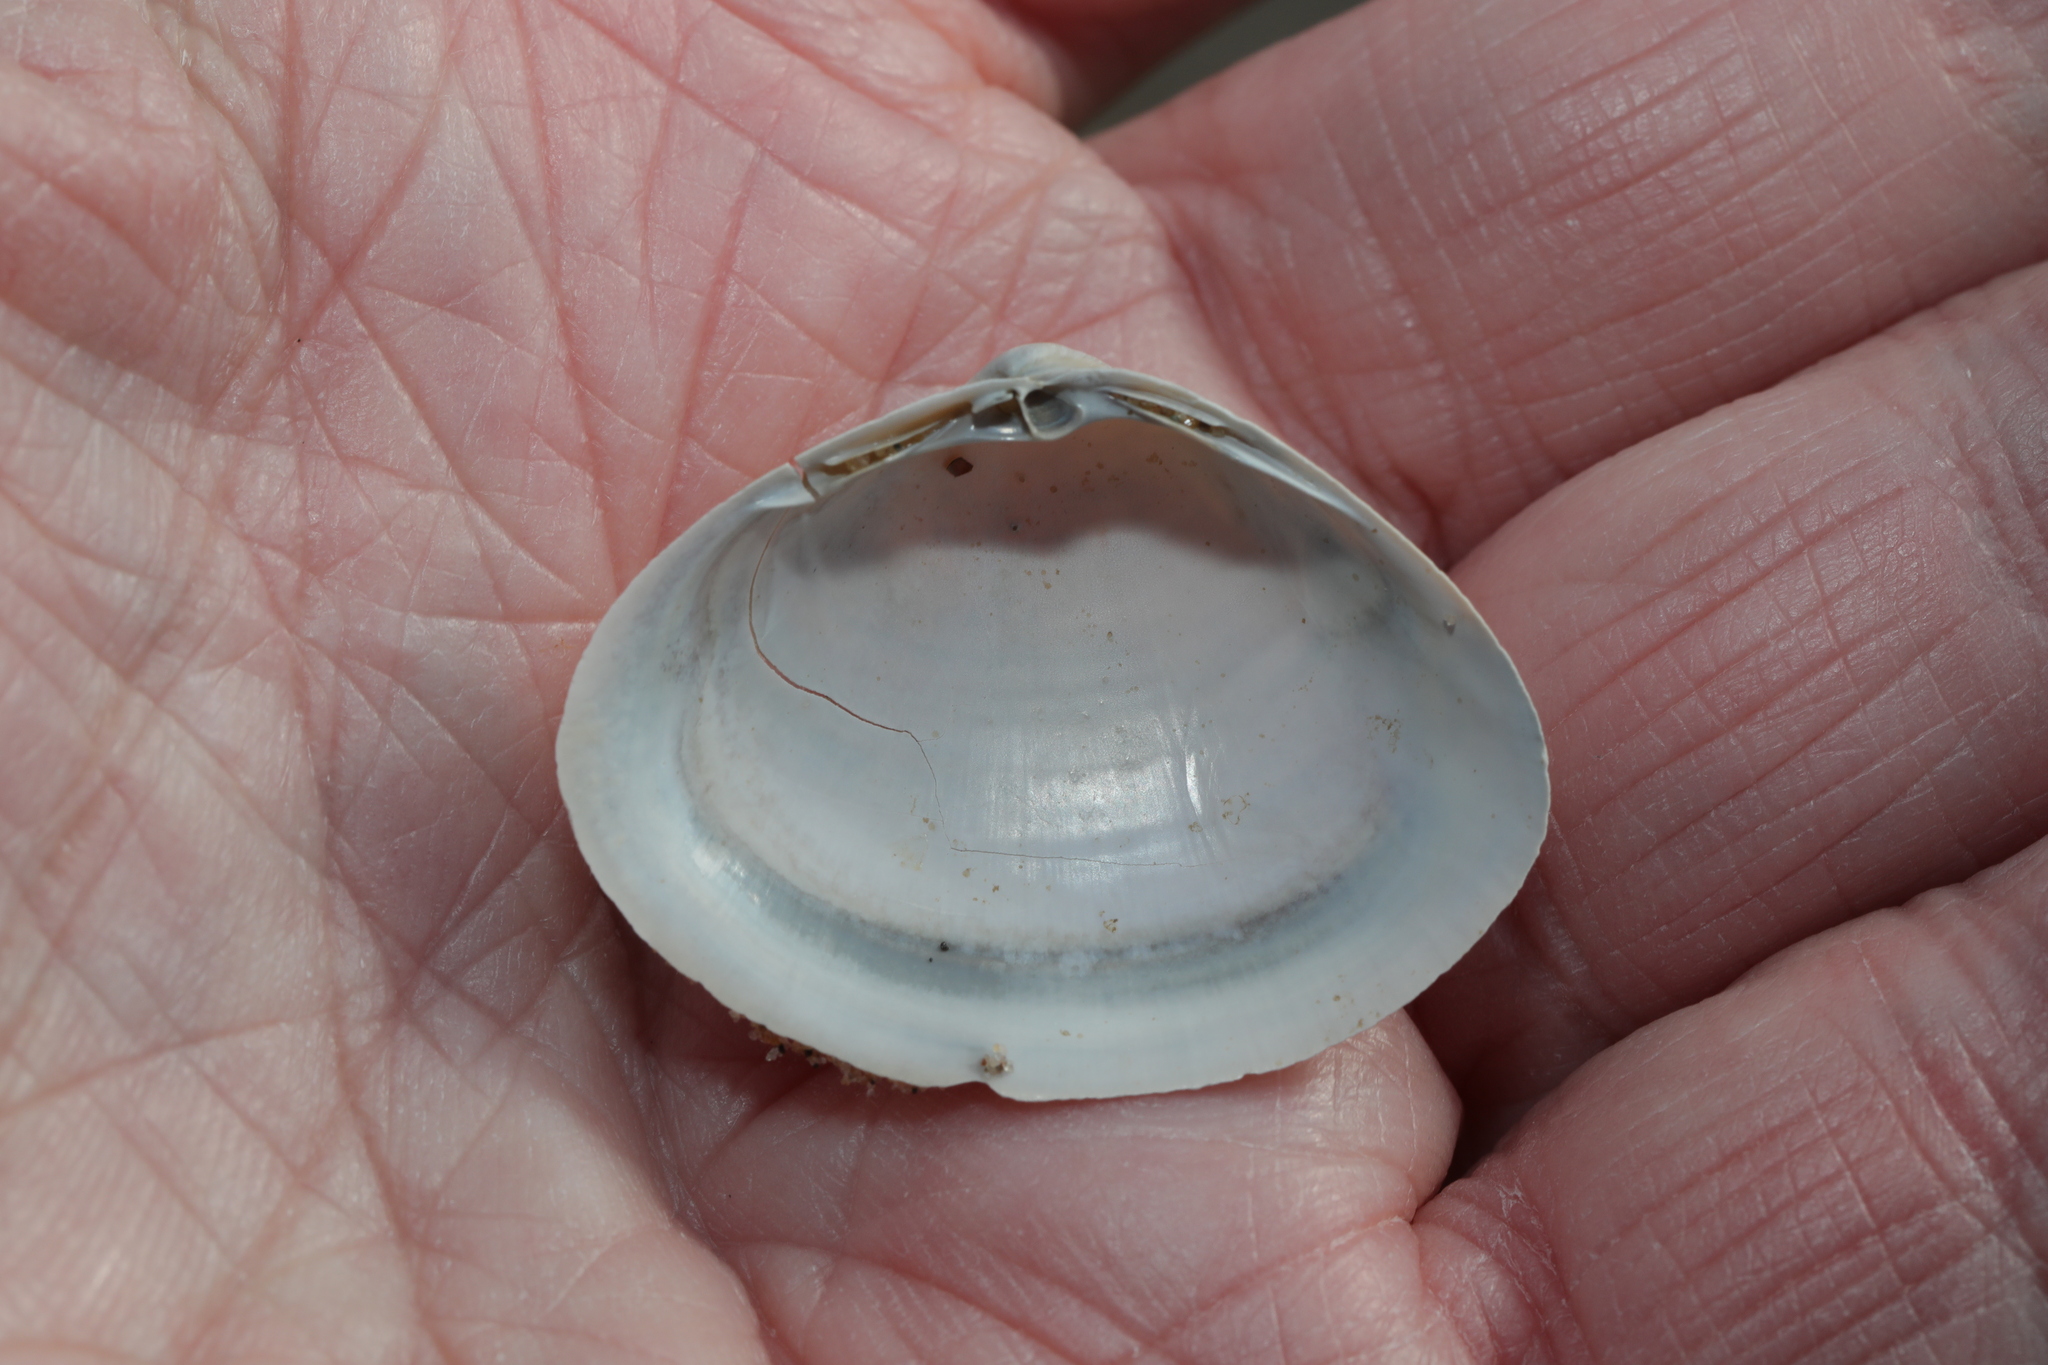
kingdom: Animalia
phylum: Mollusca
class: Bivalvia
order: Venerida
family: Mactridae
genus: Mactra
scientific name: Mactra stultorum
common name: Rayed trough shell
